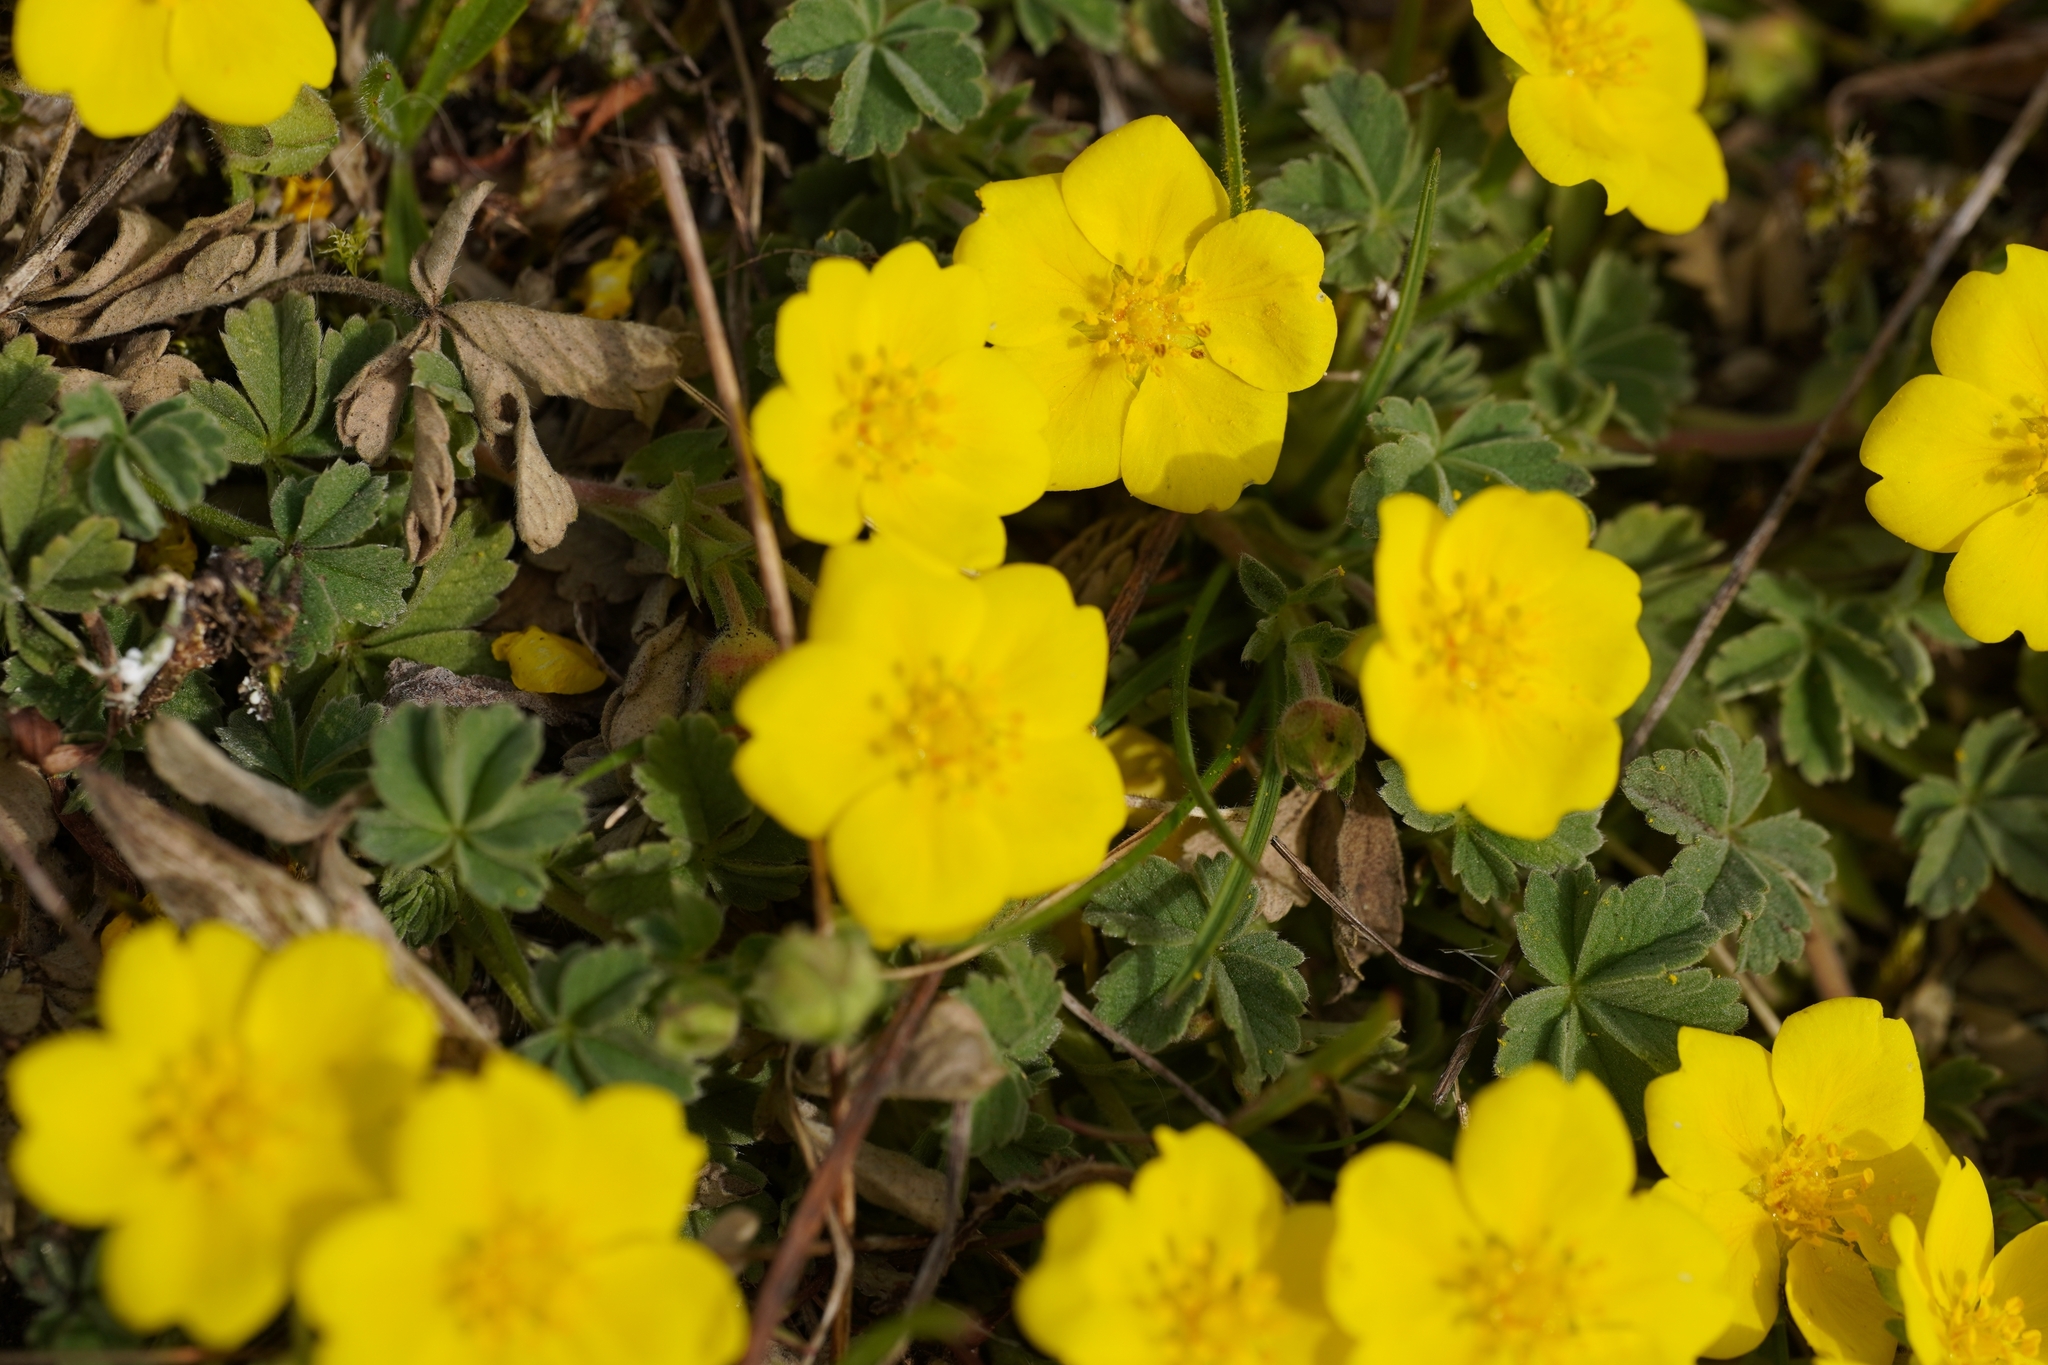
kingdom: Plantae
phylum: Tracheophyta
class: Magnoliopsida
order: Rosales
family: Rosaceae
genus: Potentilla
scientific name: Potentilla incana
